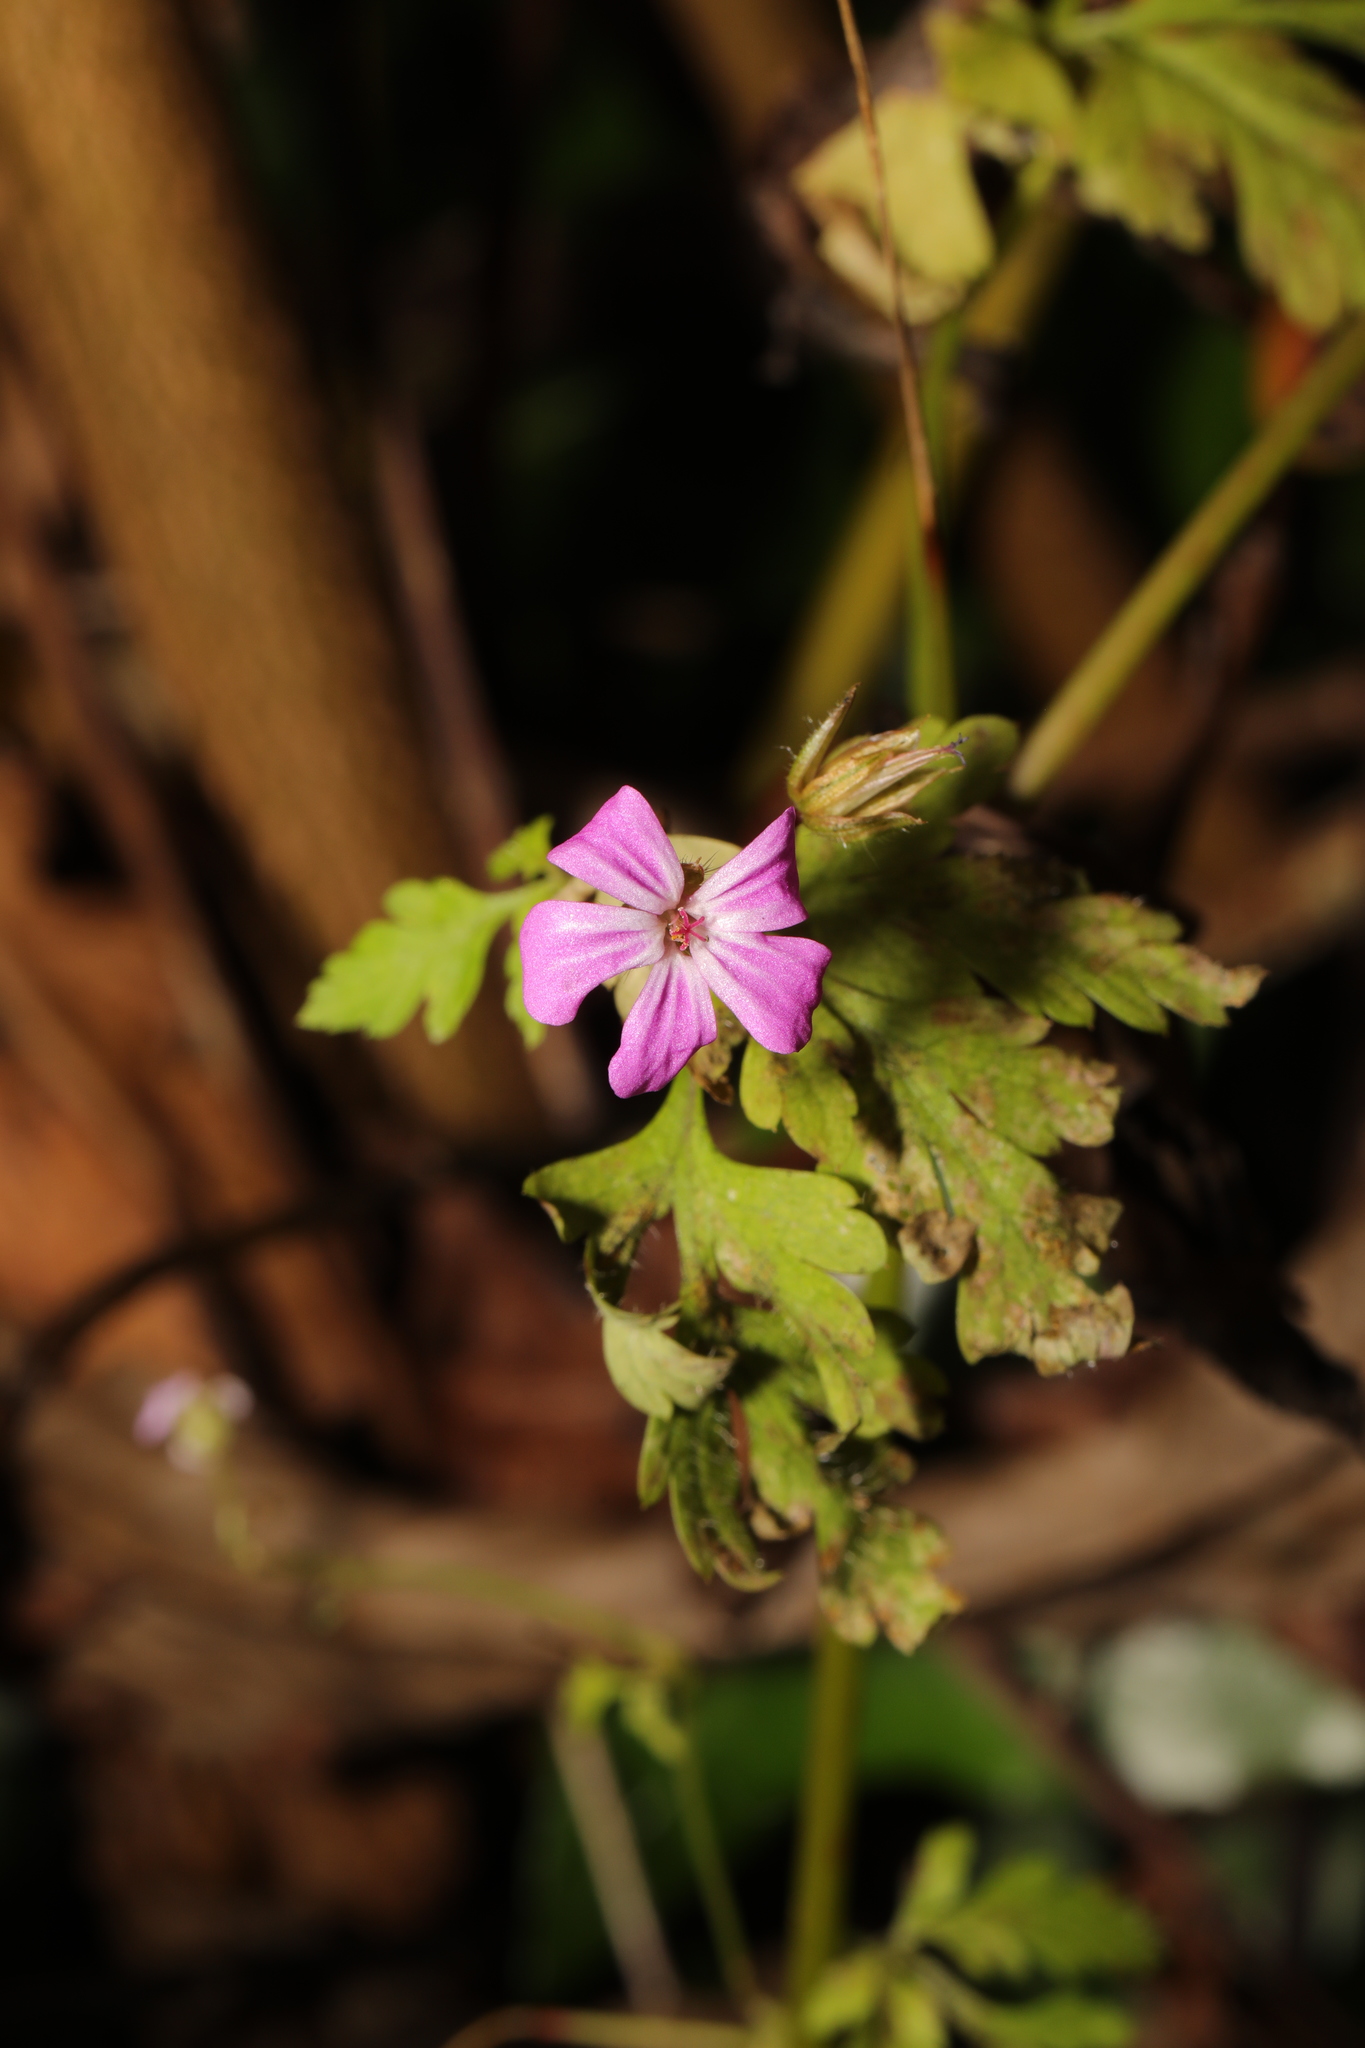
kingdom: Plantae
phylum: Tracheophyta
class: Magnoliopsida
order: Geraniales
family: Geraniaceae
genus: Geranium
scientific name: Geranium robertianum
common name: Herb-robert
